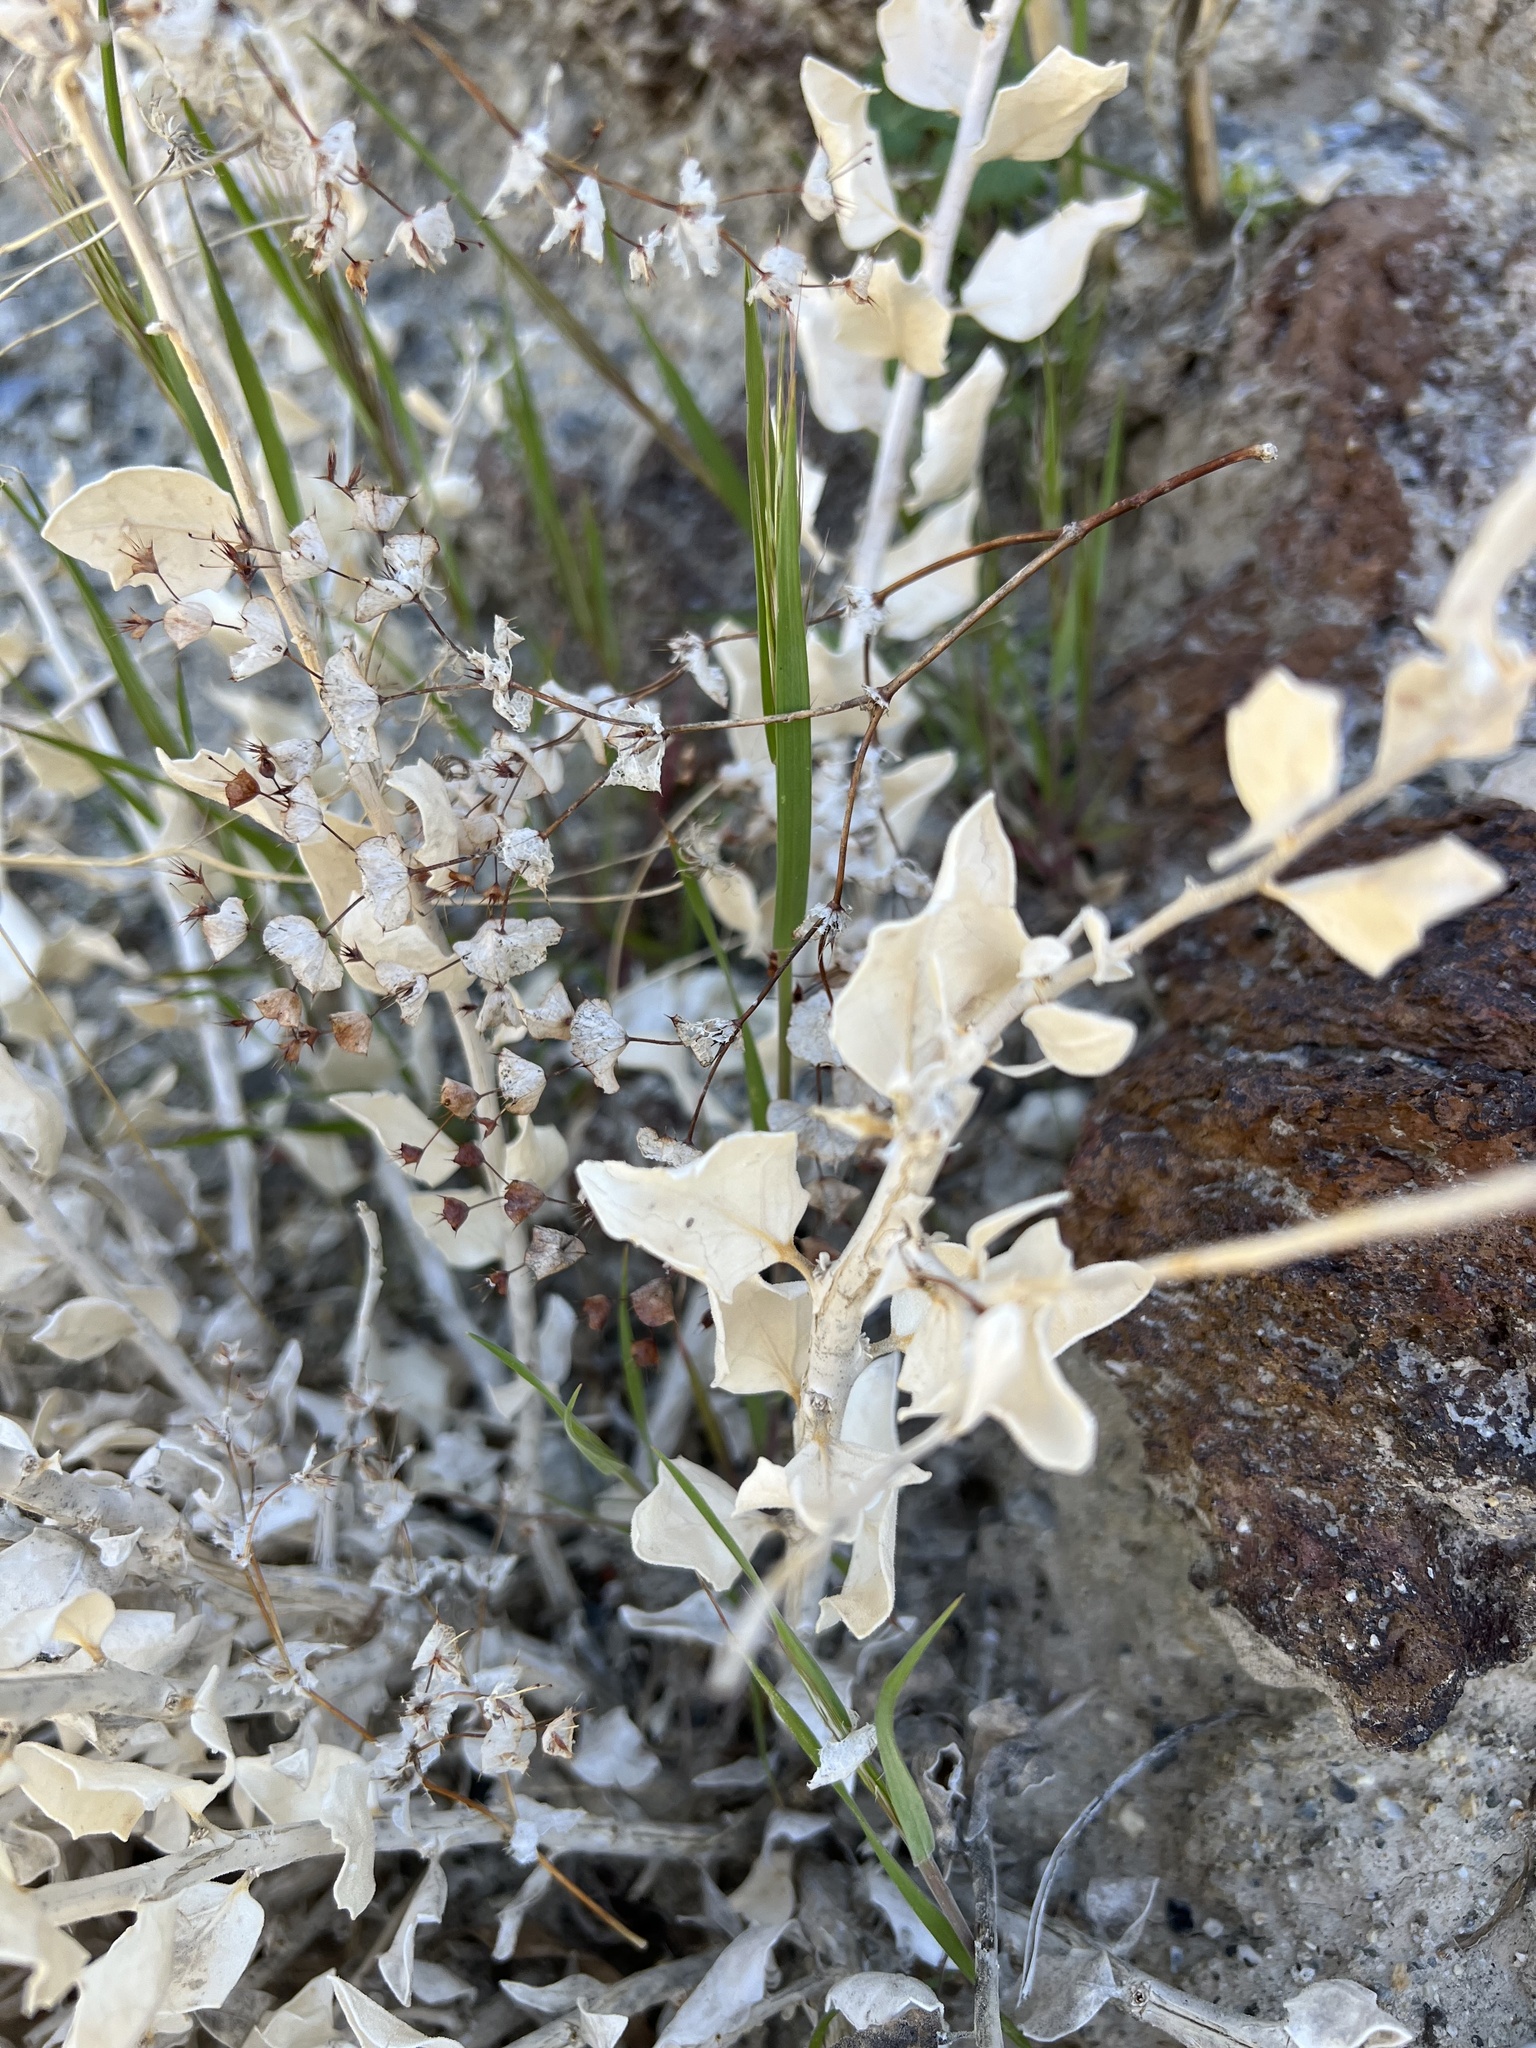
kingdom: Plantae
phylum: Tracheophyta
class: Magnoliopsida
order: Cornales
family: Loasaceae
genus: Petalonyx
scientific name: Petalonyx nitidus
